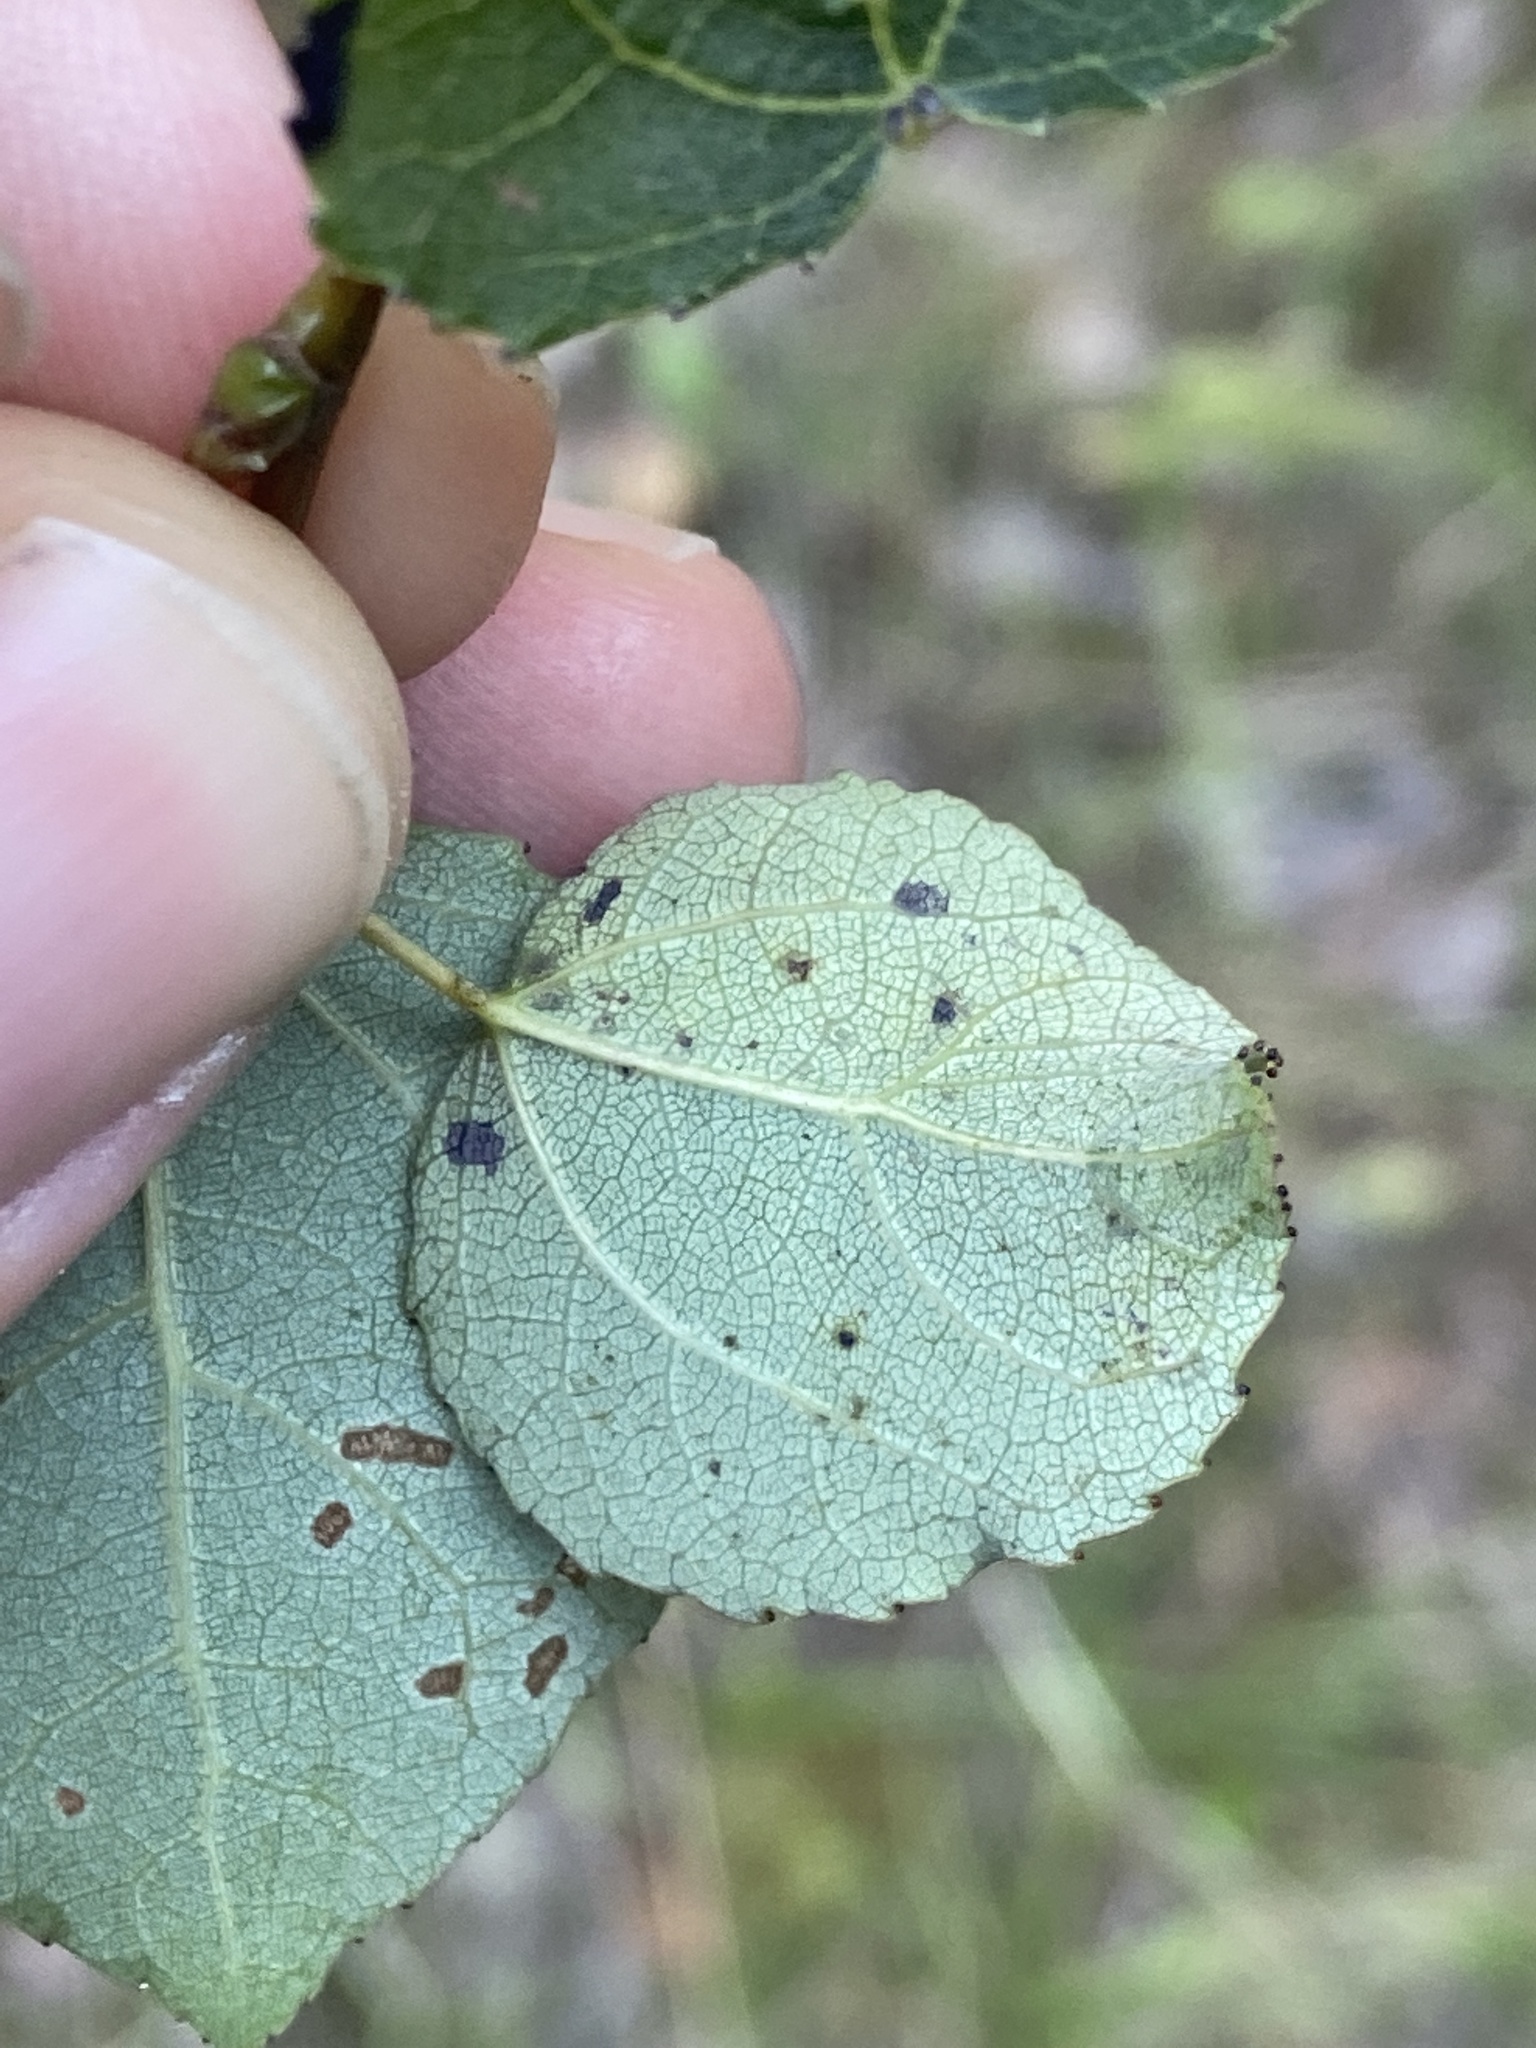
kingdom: Animalia
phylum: Arthropoda
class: Insecta
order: Lepidoptera
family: Gracillariidae
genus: Phyllocnistis
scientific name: Phyllocnistis labyrinthella
